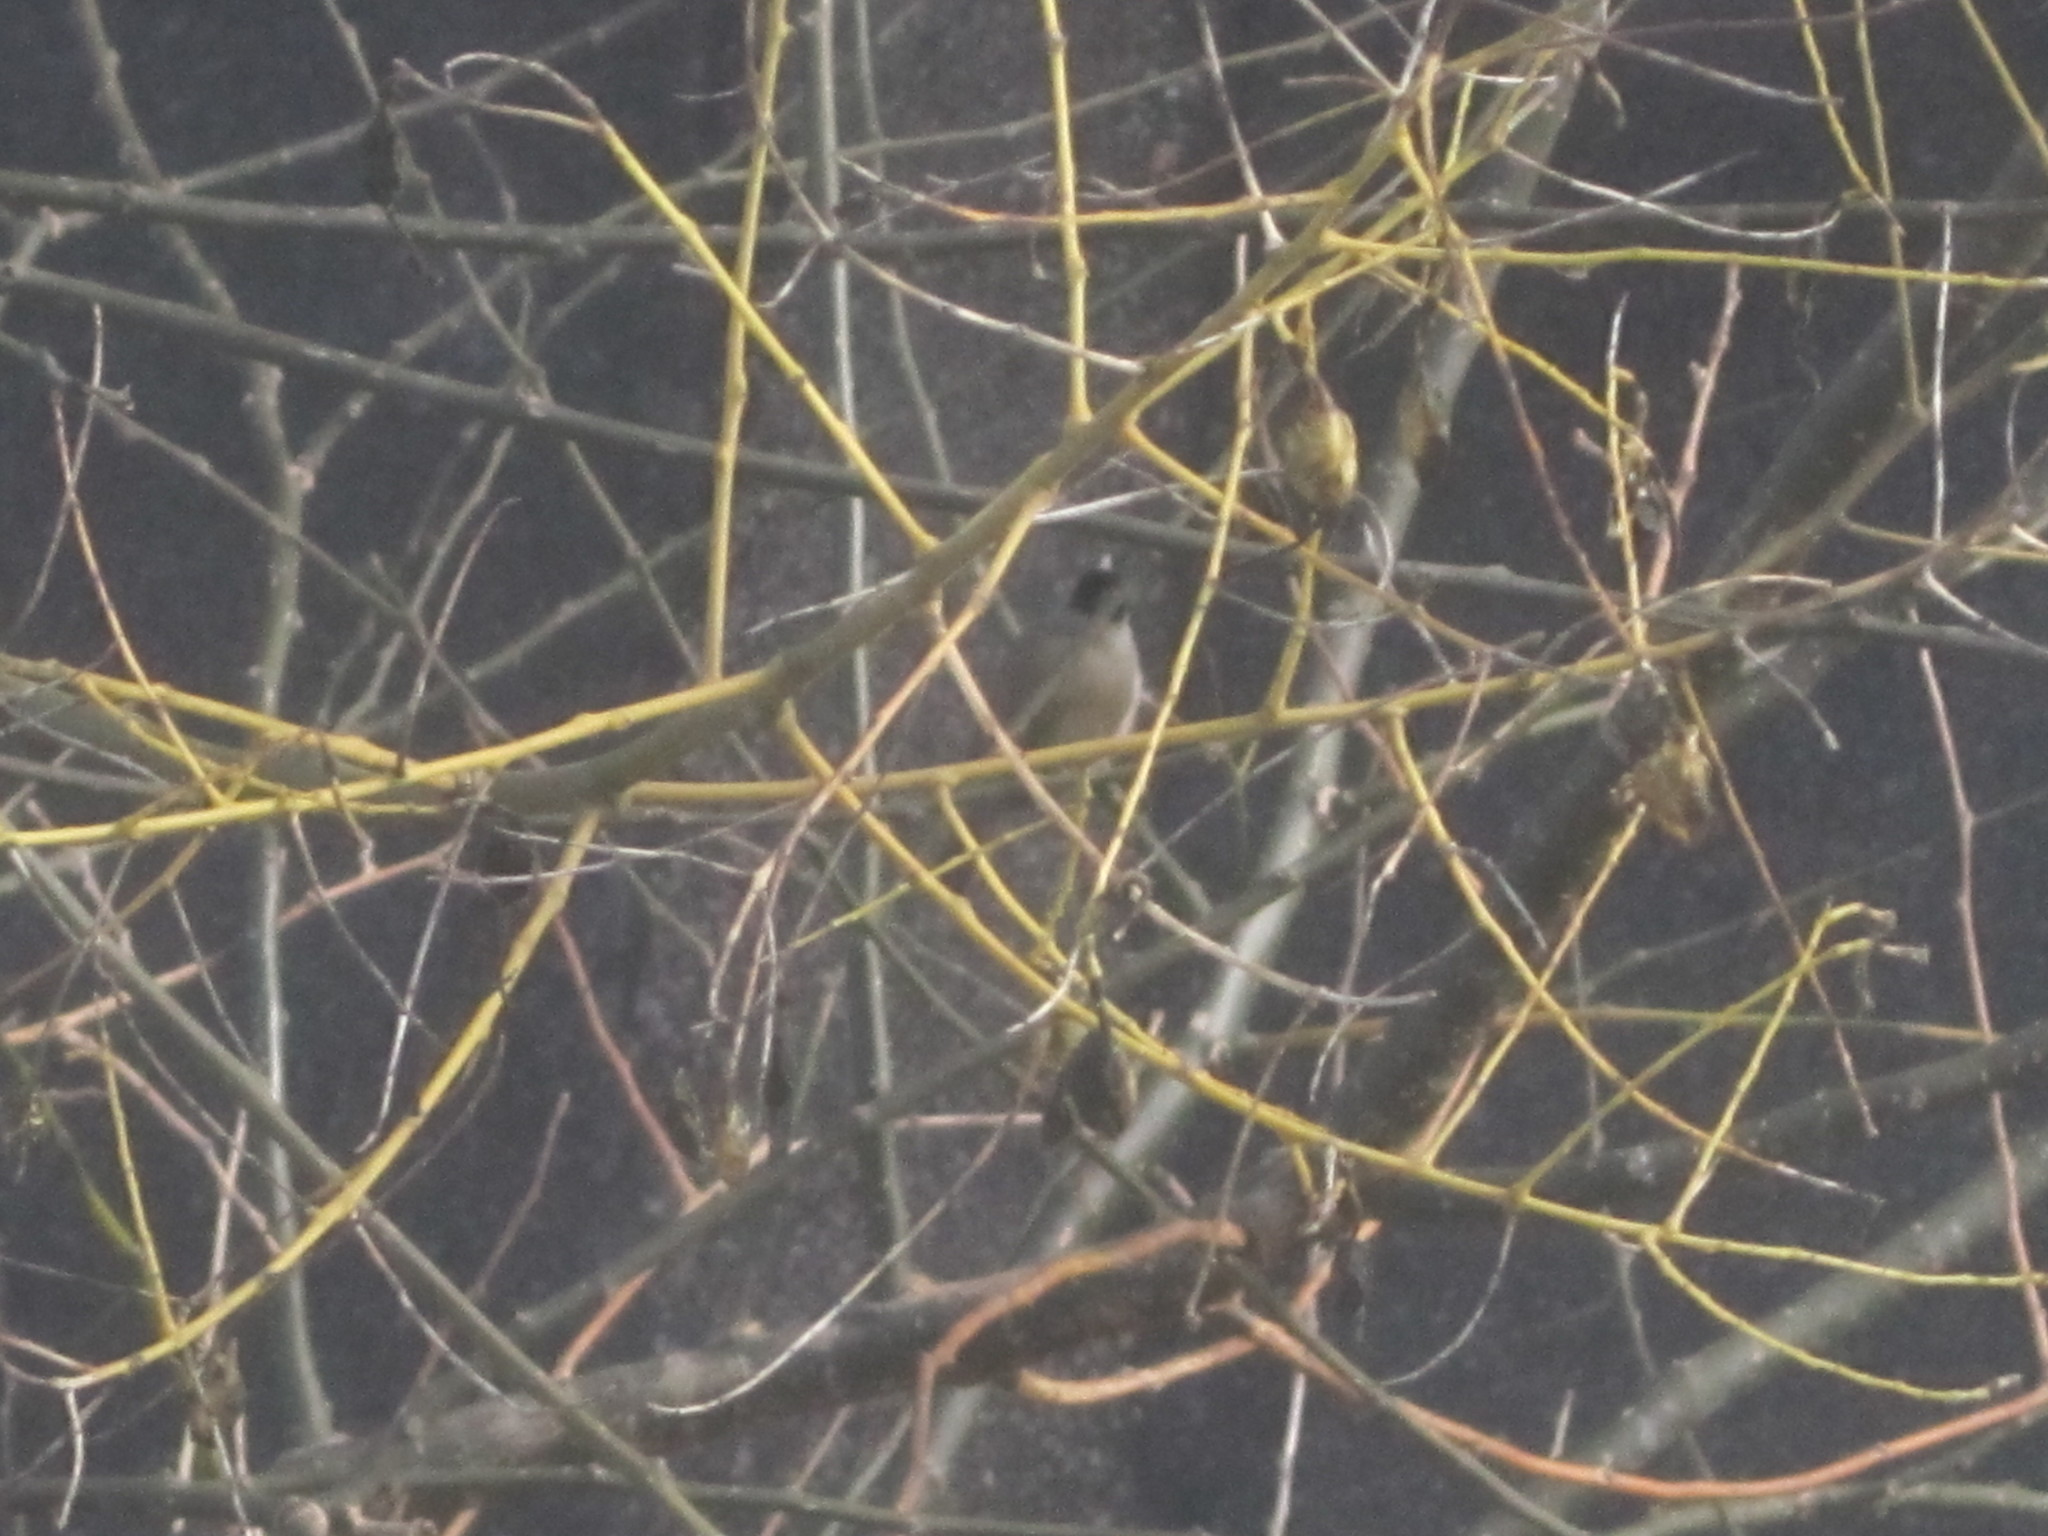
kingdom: Animalia
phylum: Chordata
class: Aves
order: Passeriformes
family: Sylviidae
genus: Sylvia
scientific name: Sylvia atricapilla
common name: Eurasian blackcap
